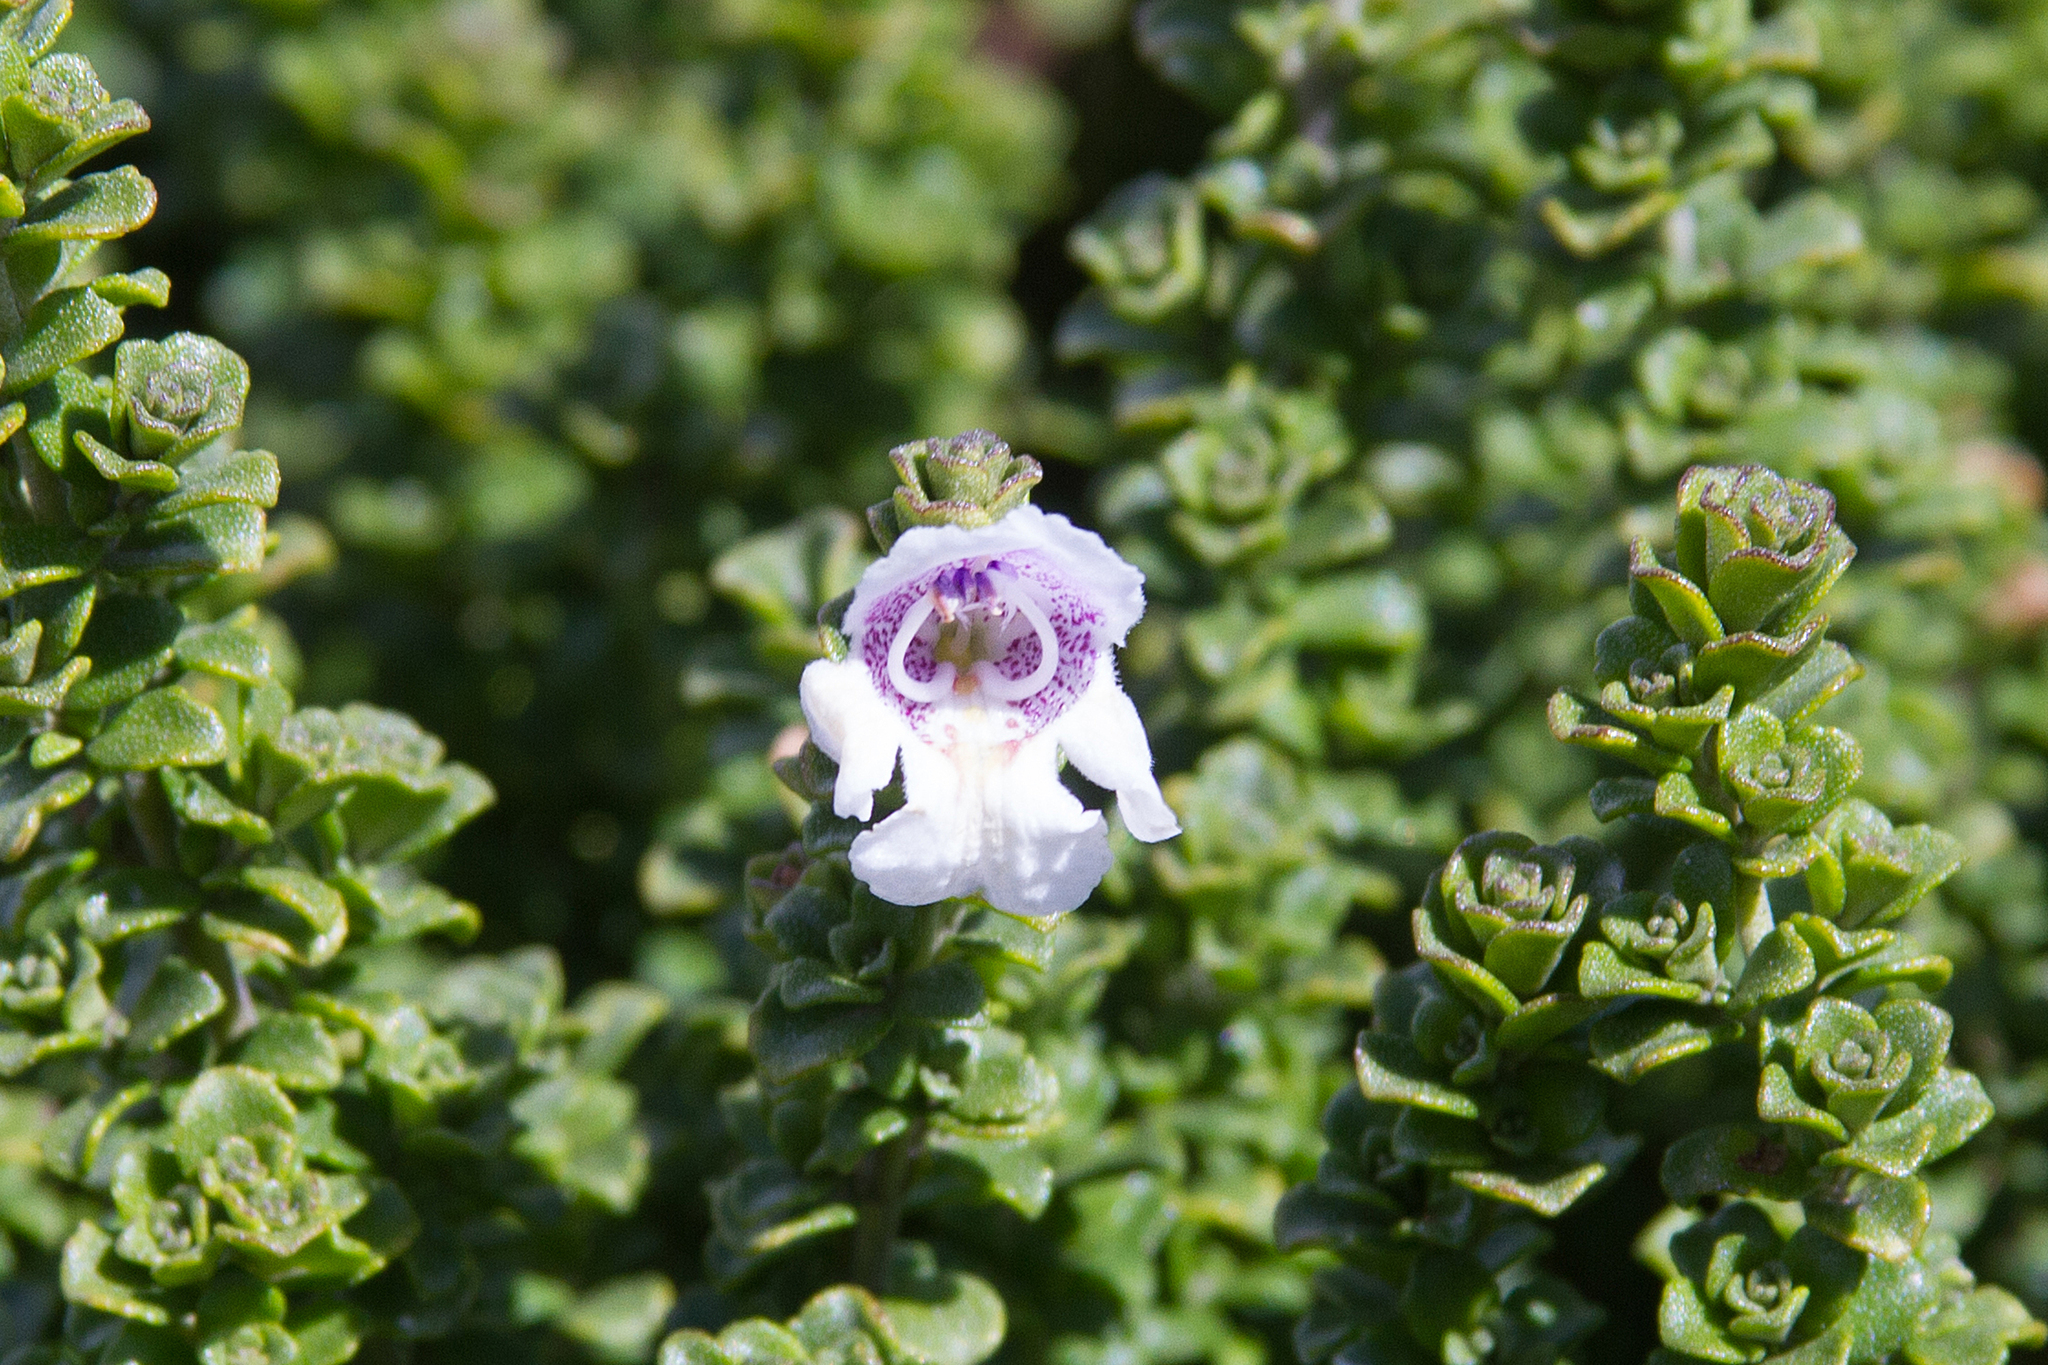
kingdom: Plantae
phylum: Tracheophyta
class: Magnoliopsida
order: Lamiales
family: Lamiaceae
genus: Prostanthera
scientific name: Prostanthera cuneata
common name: Alpine mintbush
